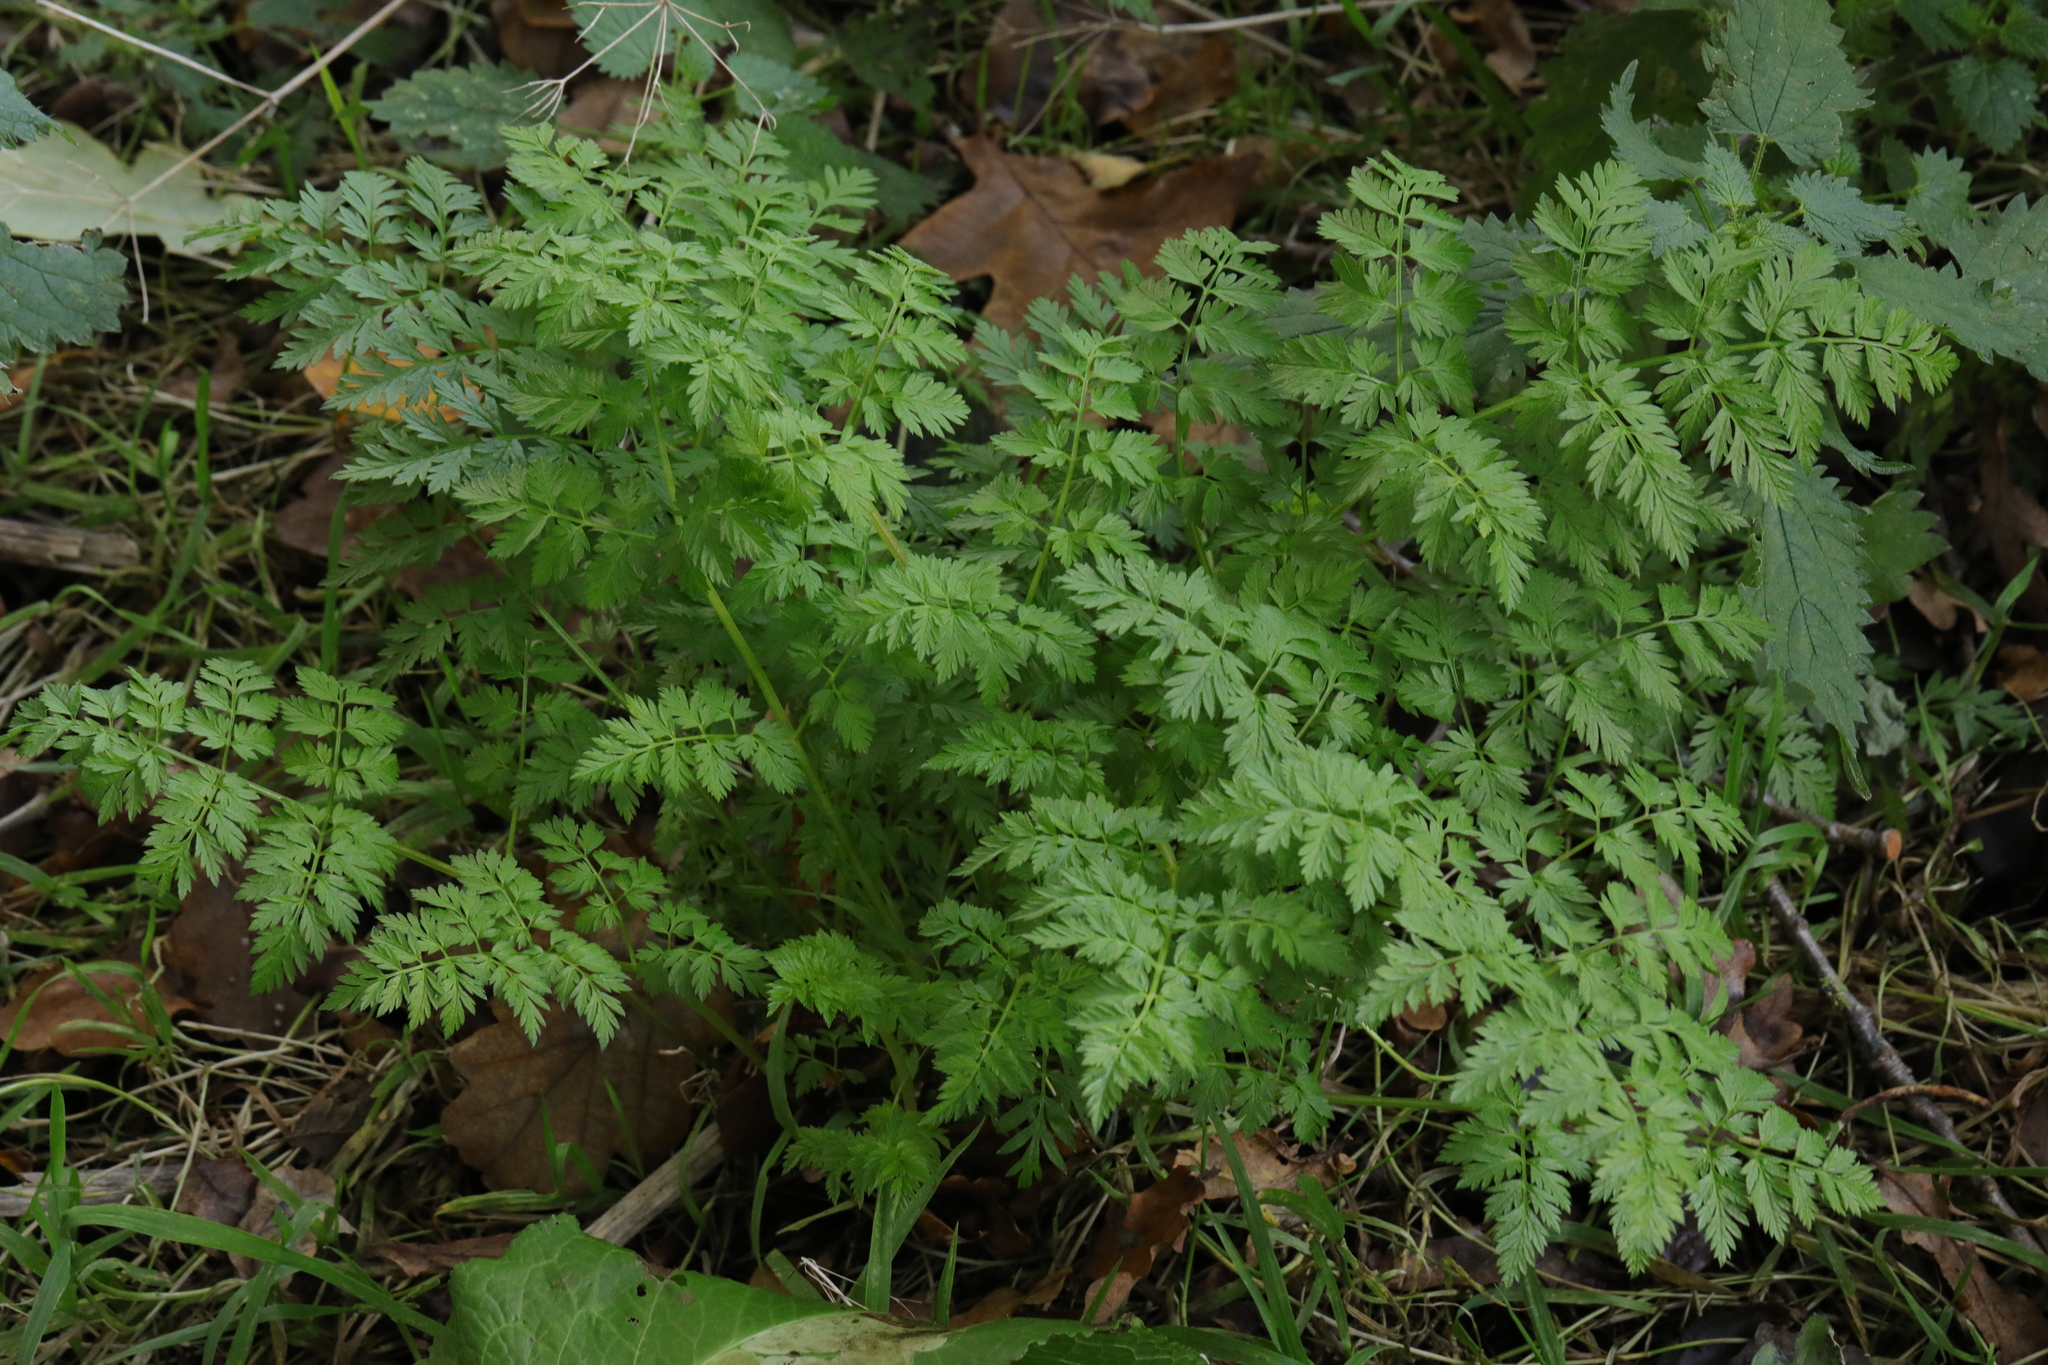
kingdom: Plantae
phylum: Tracheophyta
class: Magnoliopsida
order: Apiales
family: Apiaceae
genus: Anthriscus
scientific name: Anthriscus sylvestris
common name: Cow parsley
